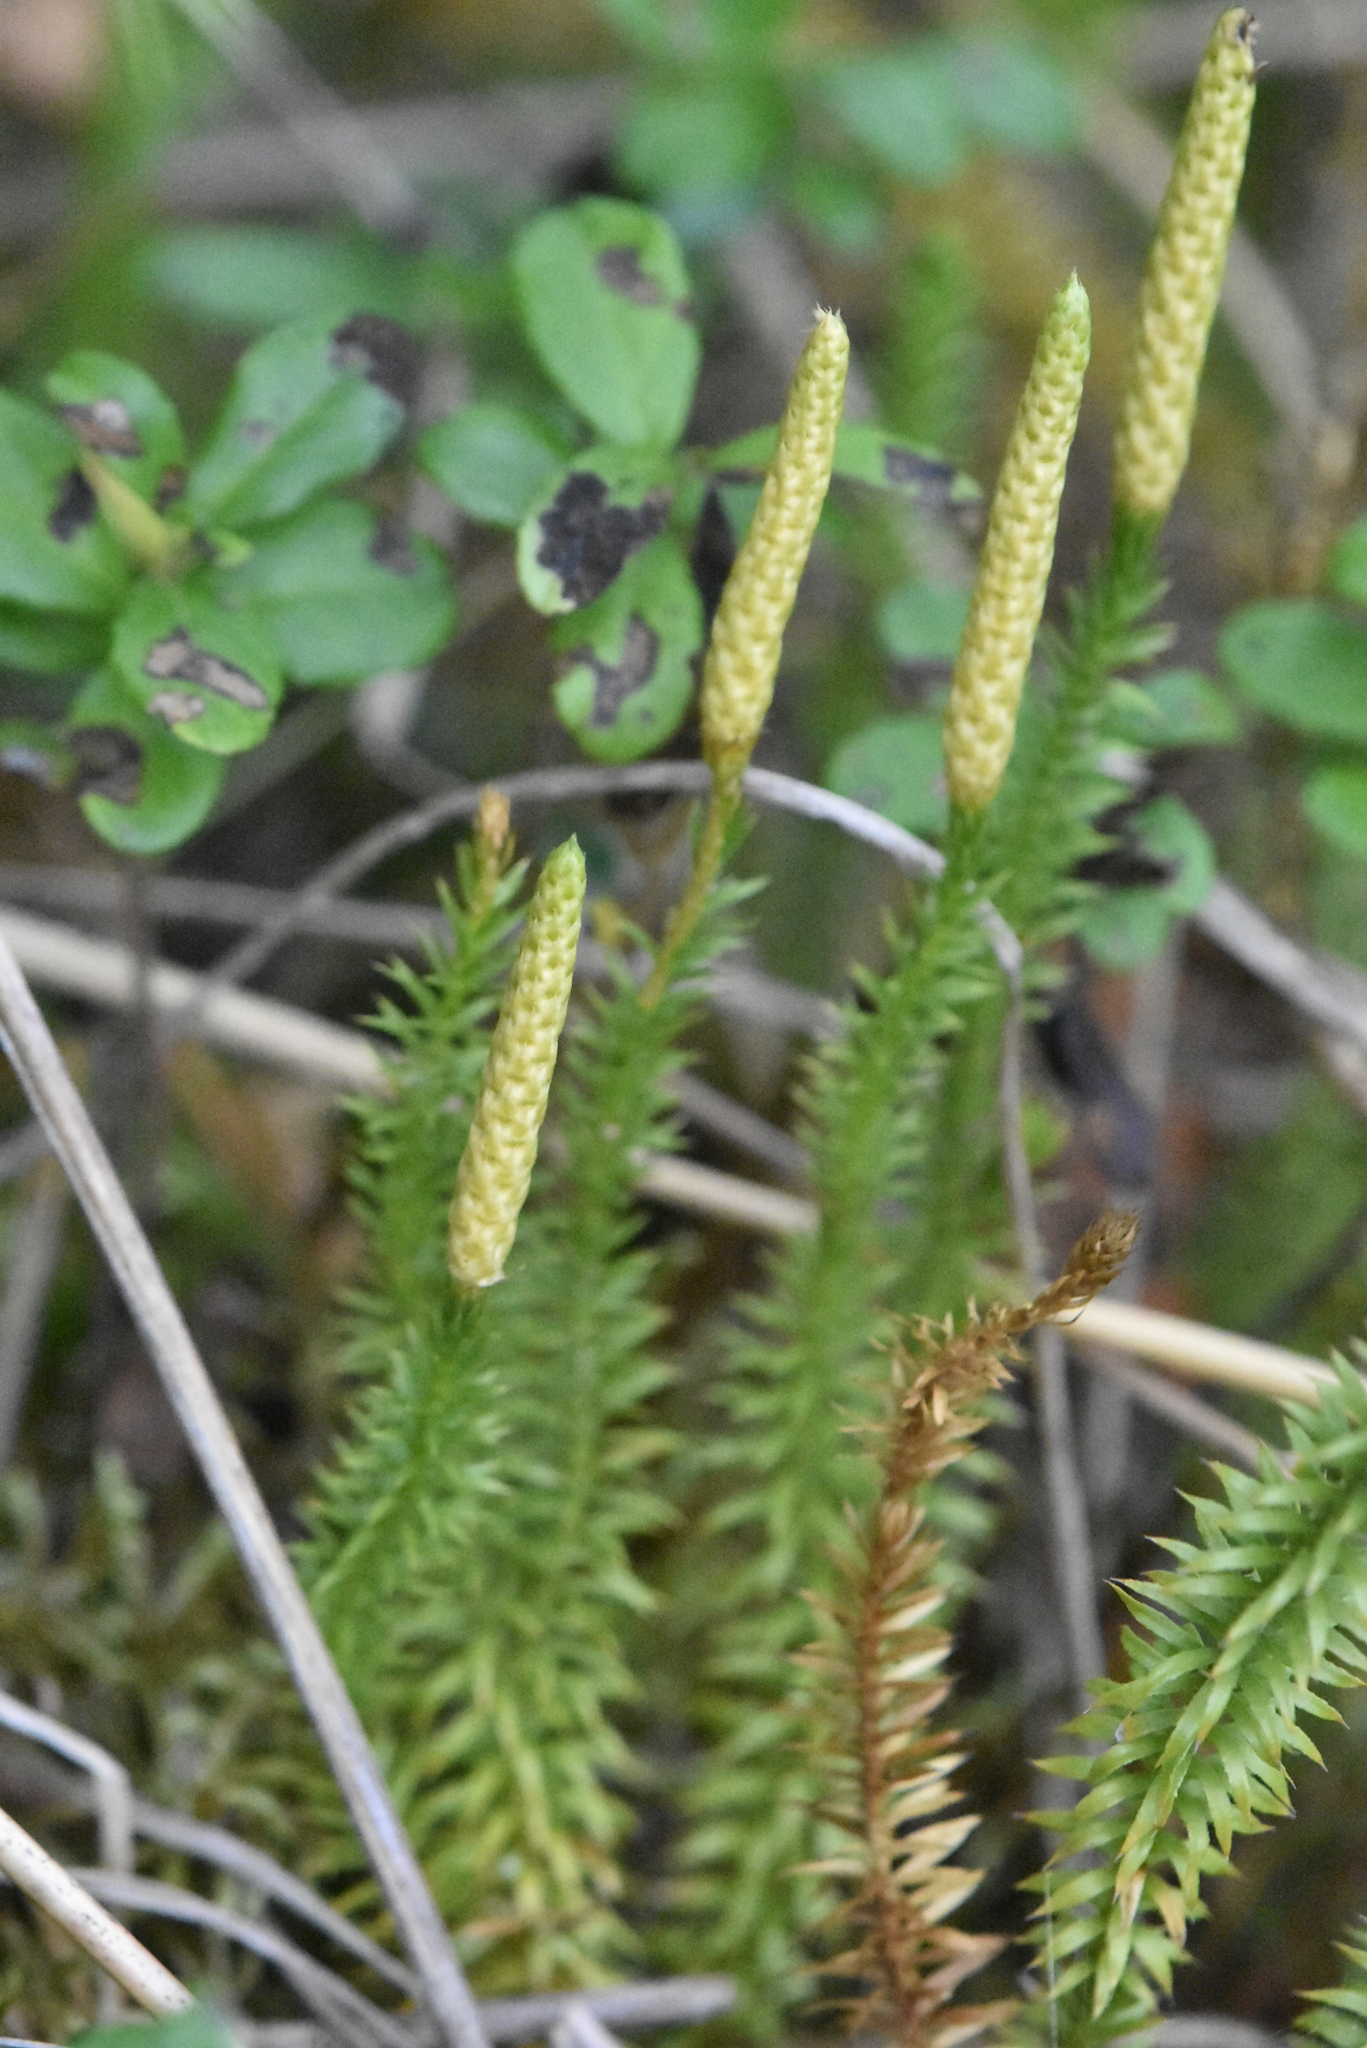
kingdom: Plantae
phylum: Tracheophyta
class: Lycopodiopsida
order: Lycopodiales
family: Lycopodiaceae
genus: Spinulum
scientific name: Spinulum annotinum
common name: Interrupted club-moss
